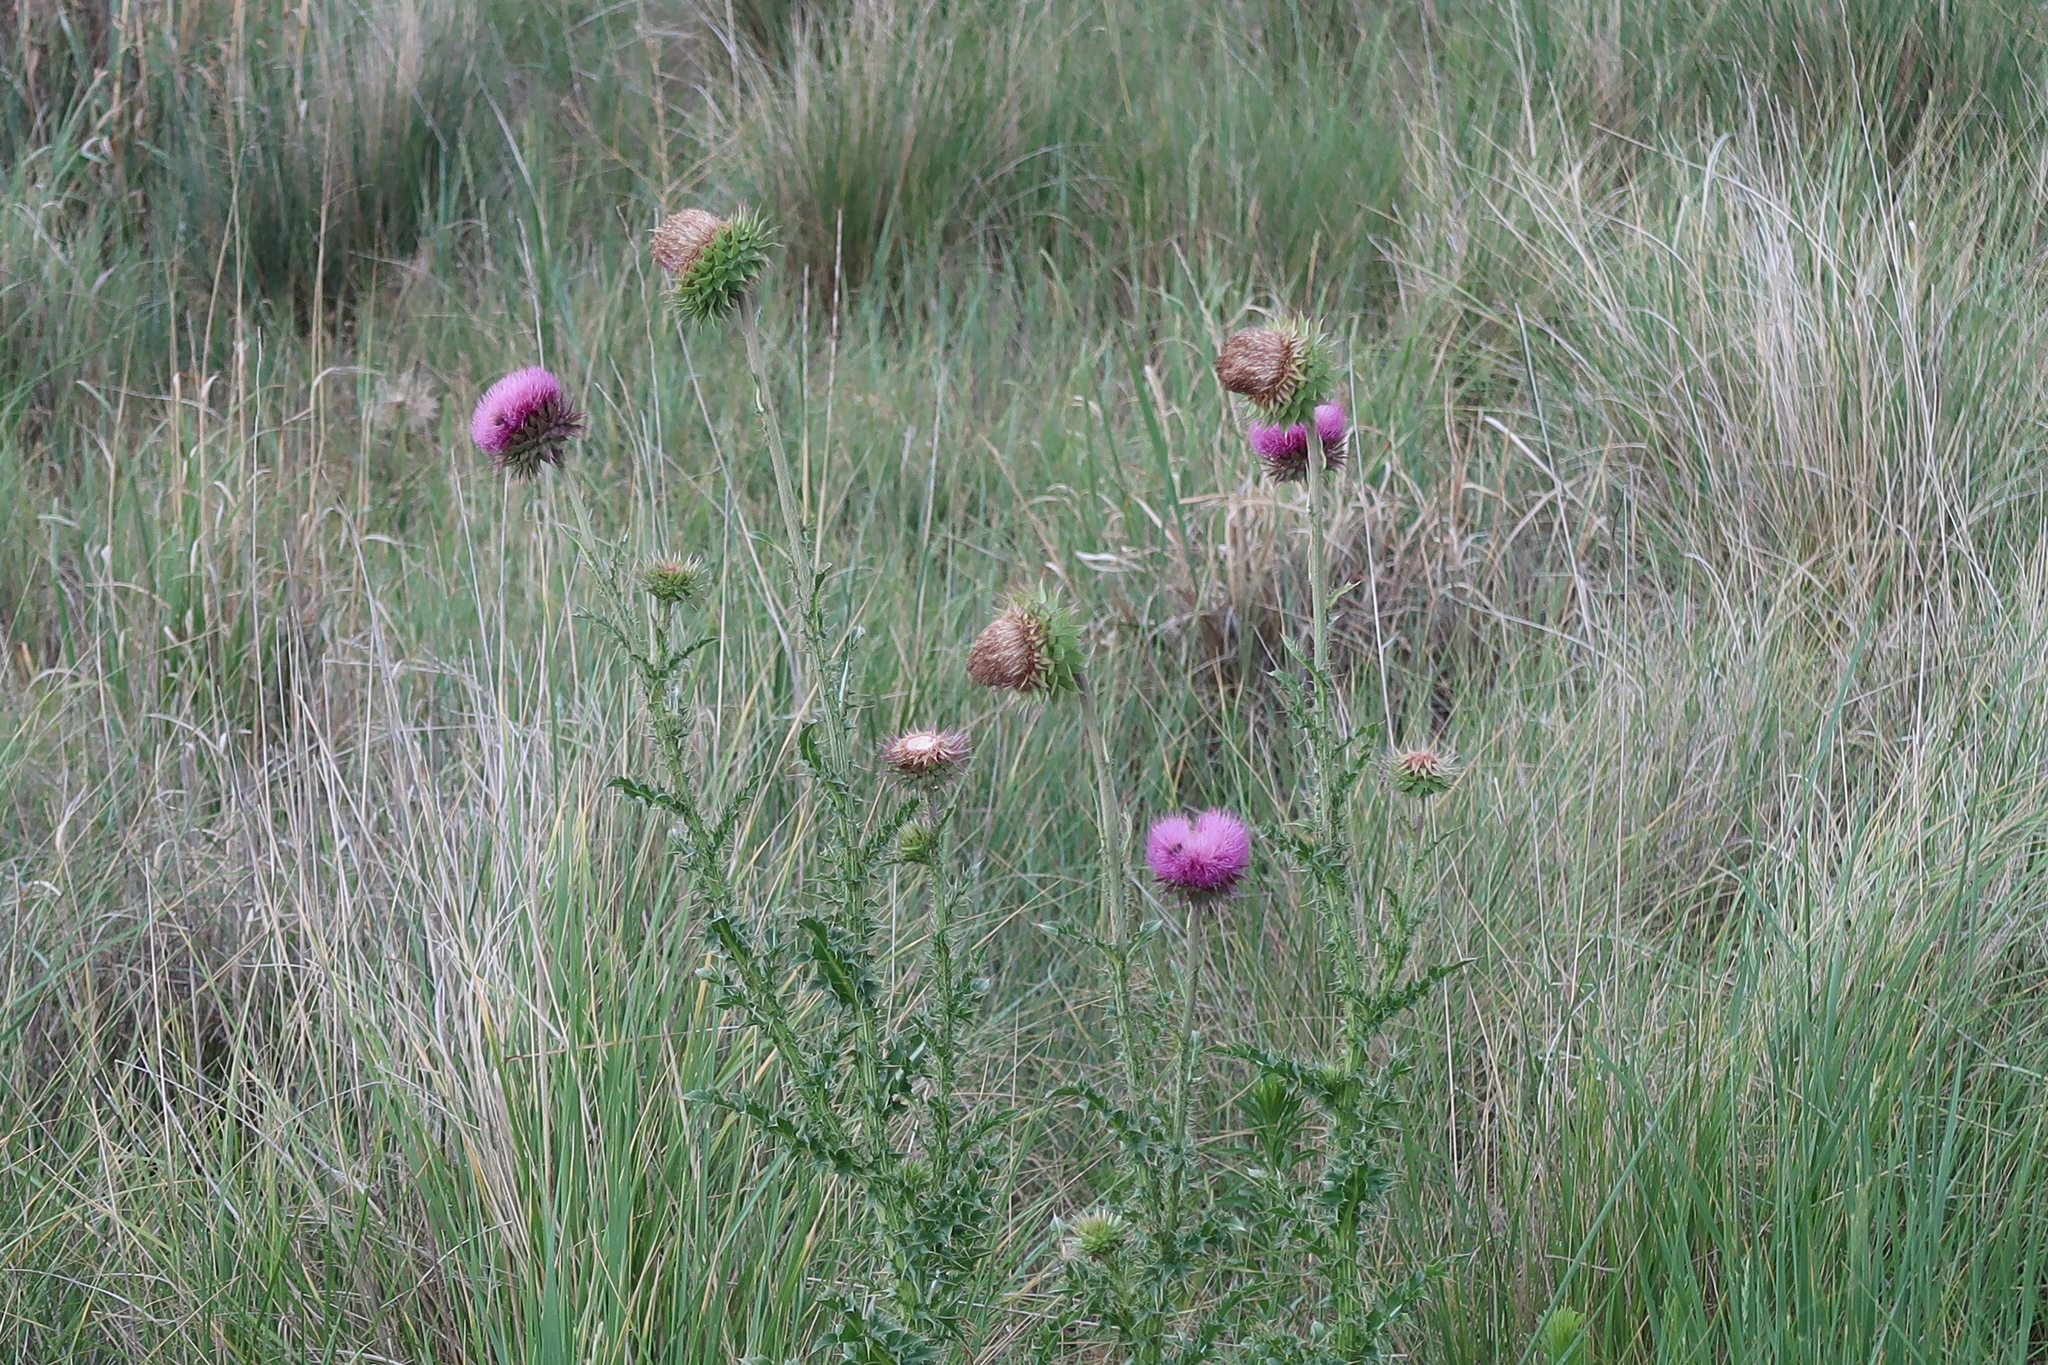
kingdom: Plantae
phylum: Tracheophyta
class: Magnoliopsida
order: Asterales
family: Asteraceae
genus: Carduus
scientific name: Carduus nutans
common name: Musk thistle
